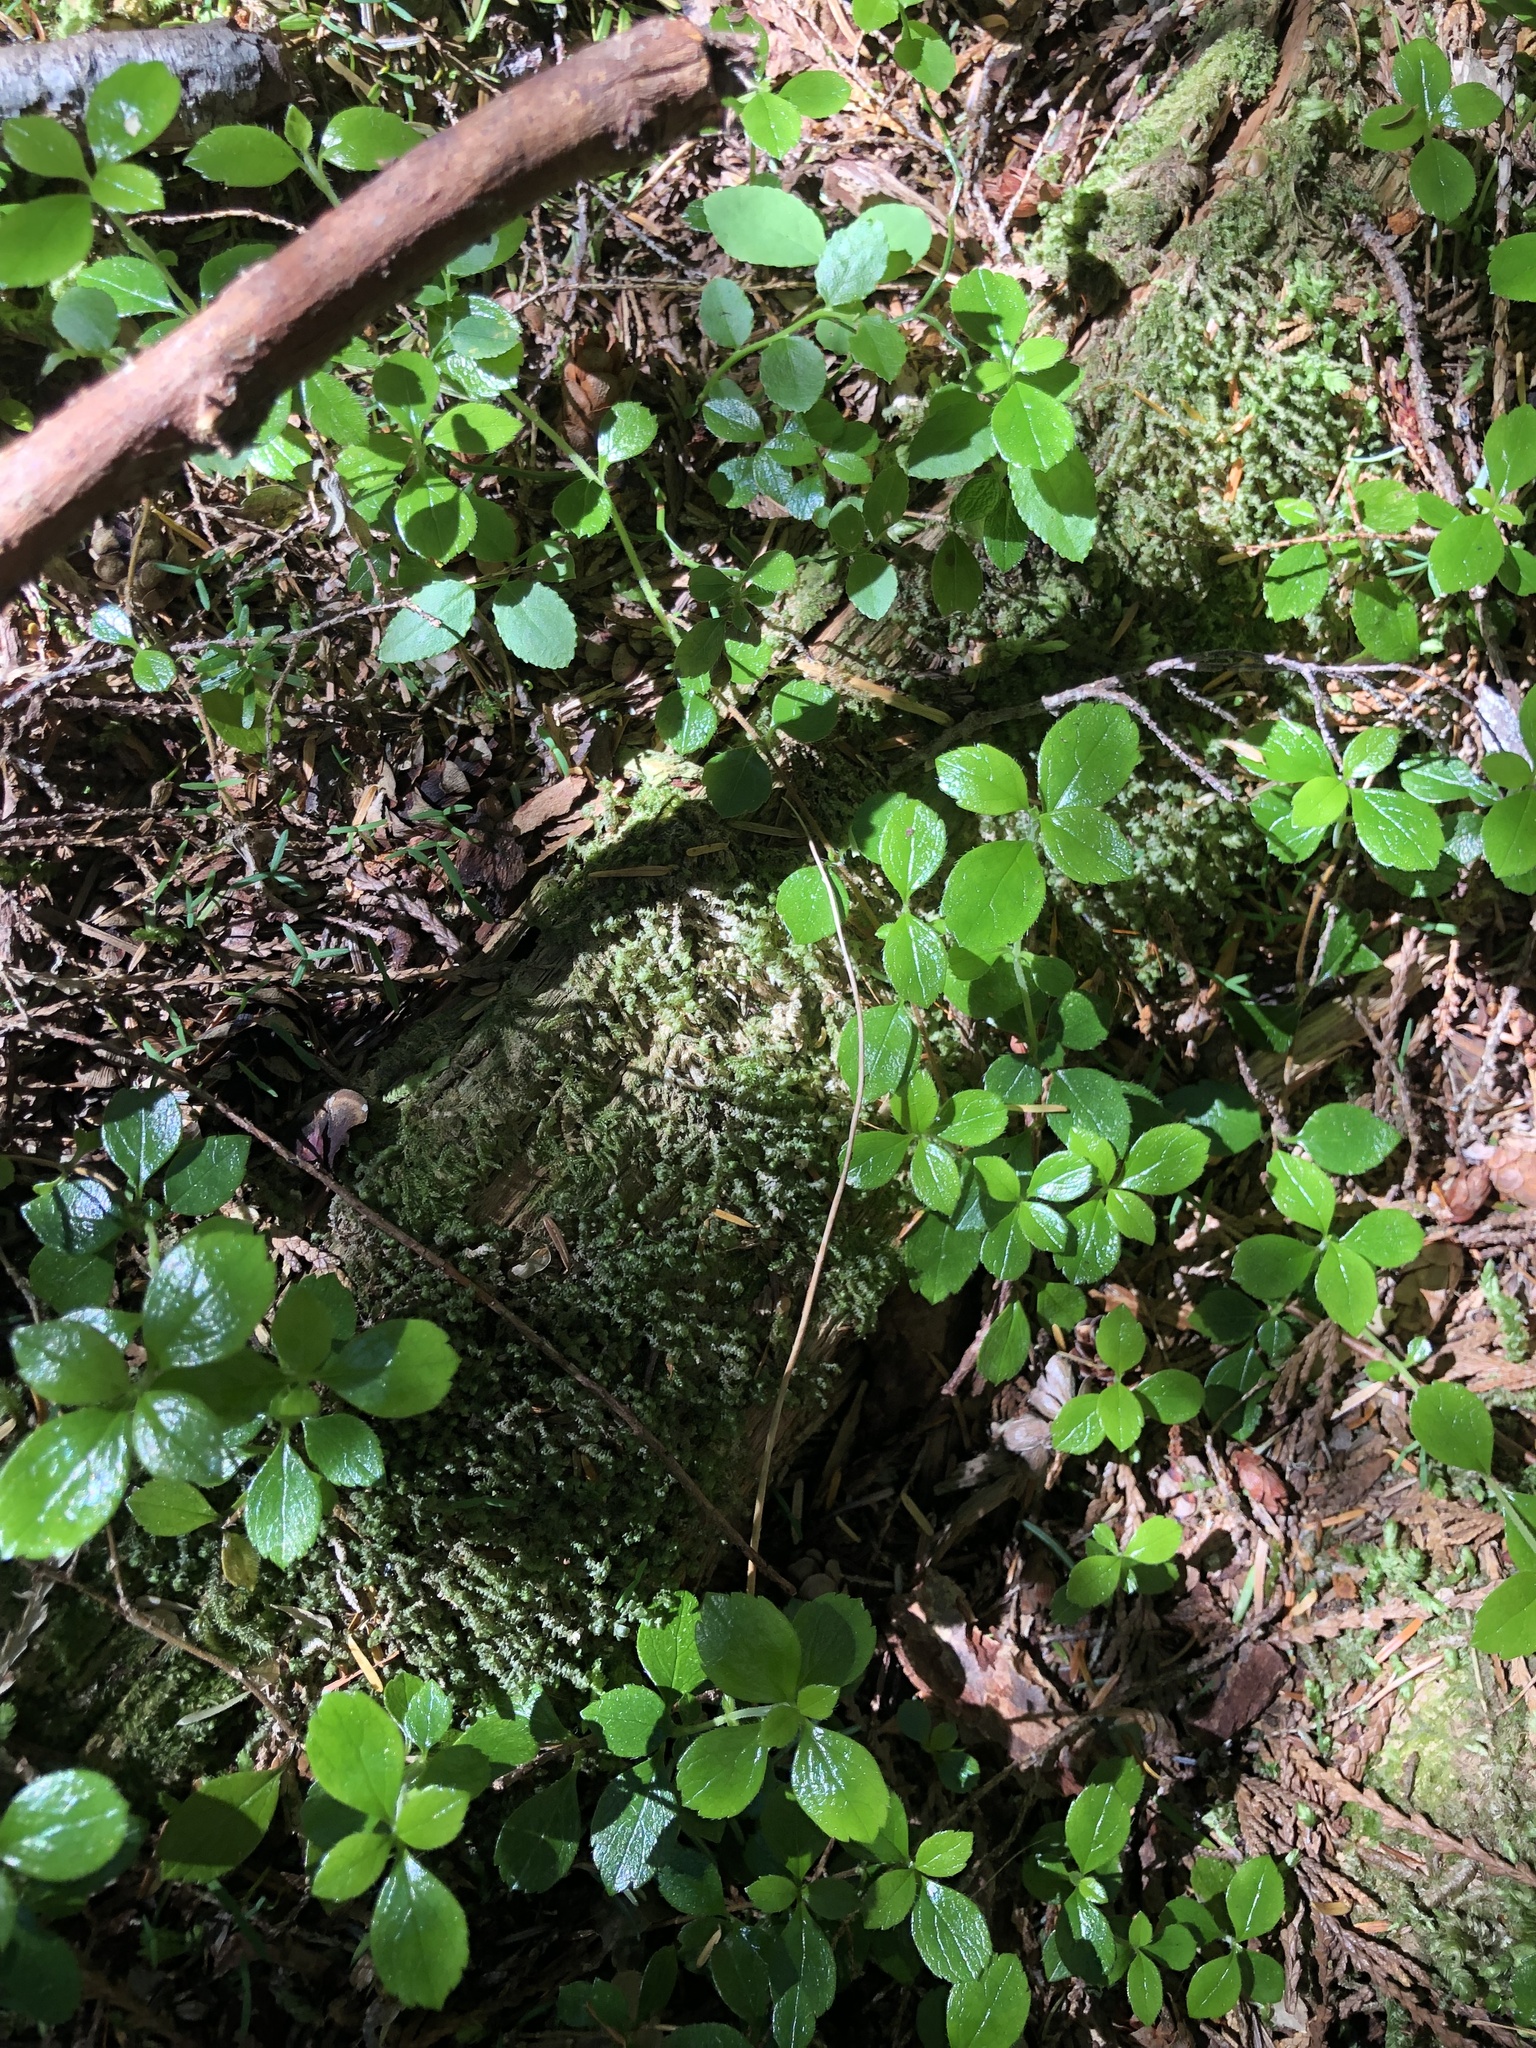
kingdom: Plantae
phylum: Tracheophyta
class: Magnoliopsida
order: Dipsacales
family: Caprifoliaceae
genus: Linnaea
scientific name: Linnaea borealis
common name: Twinflower
